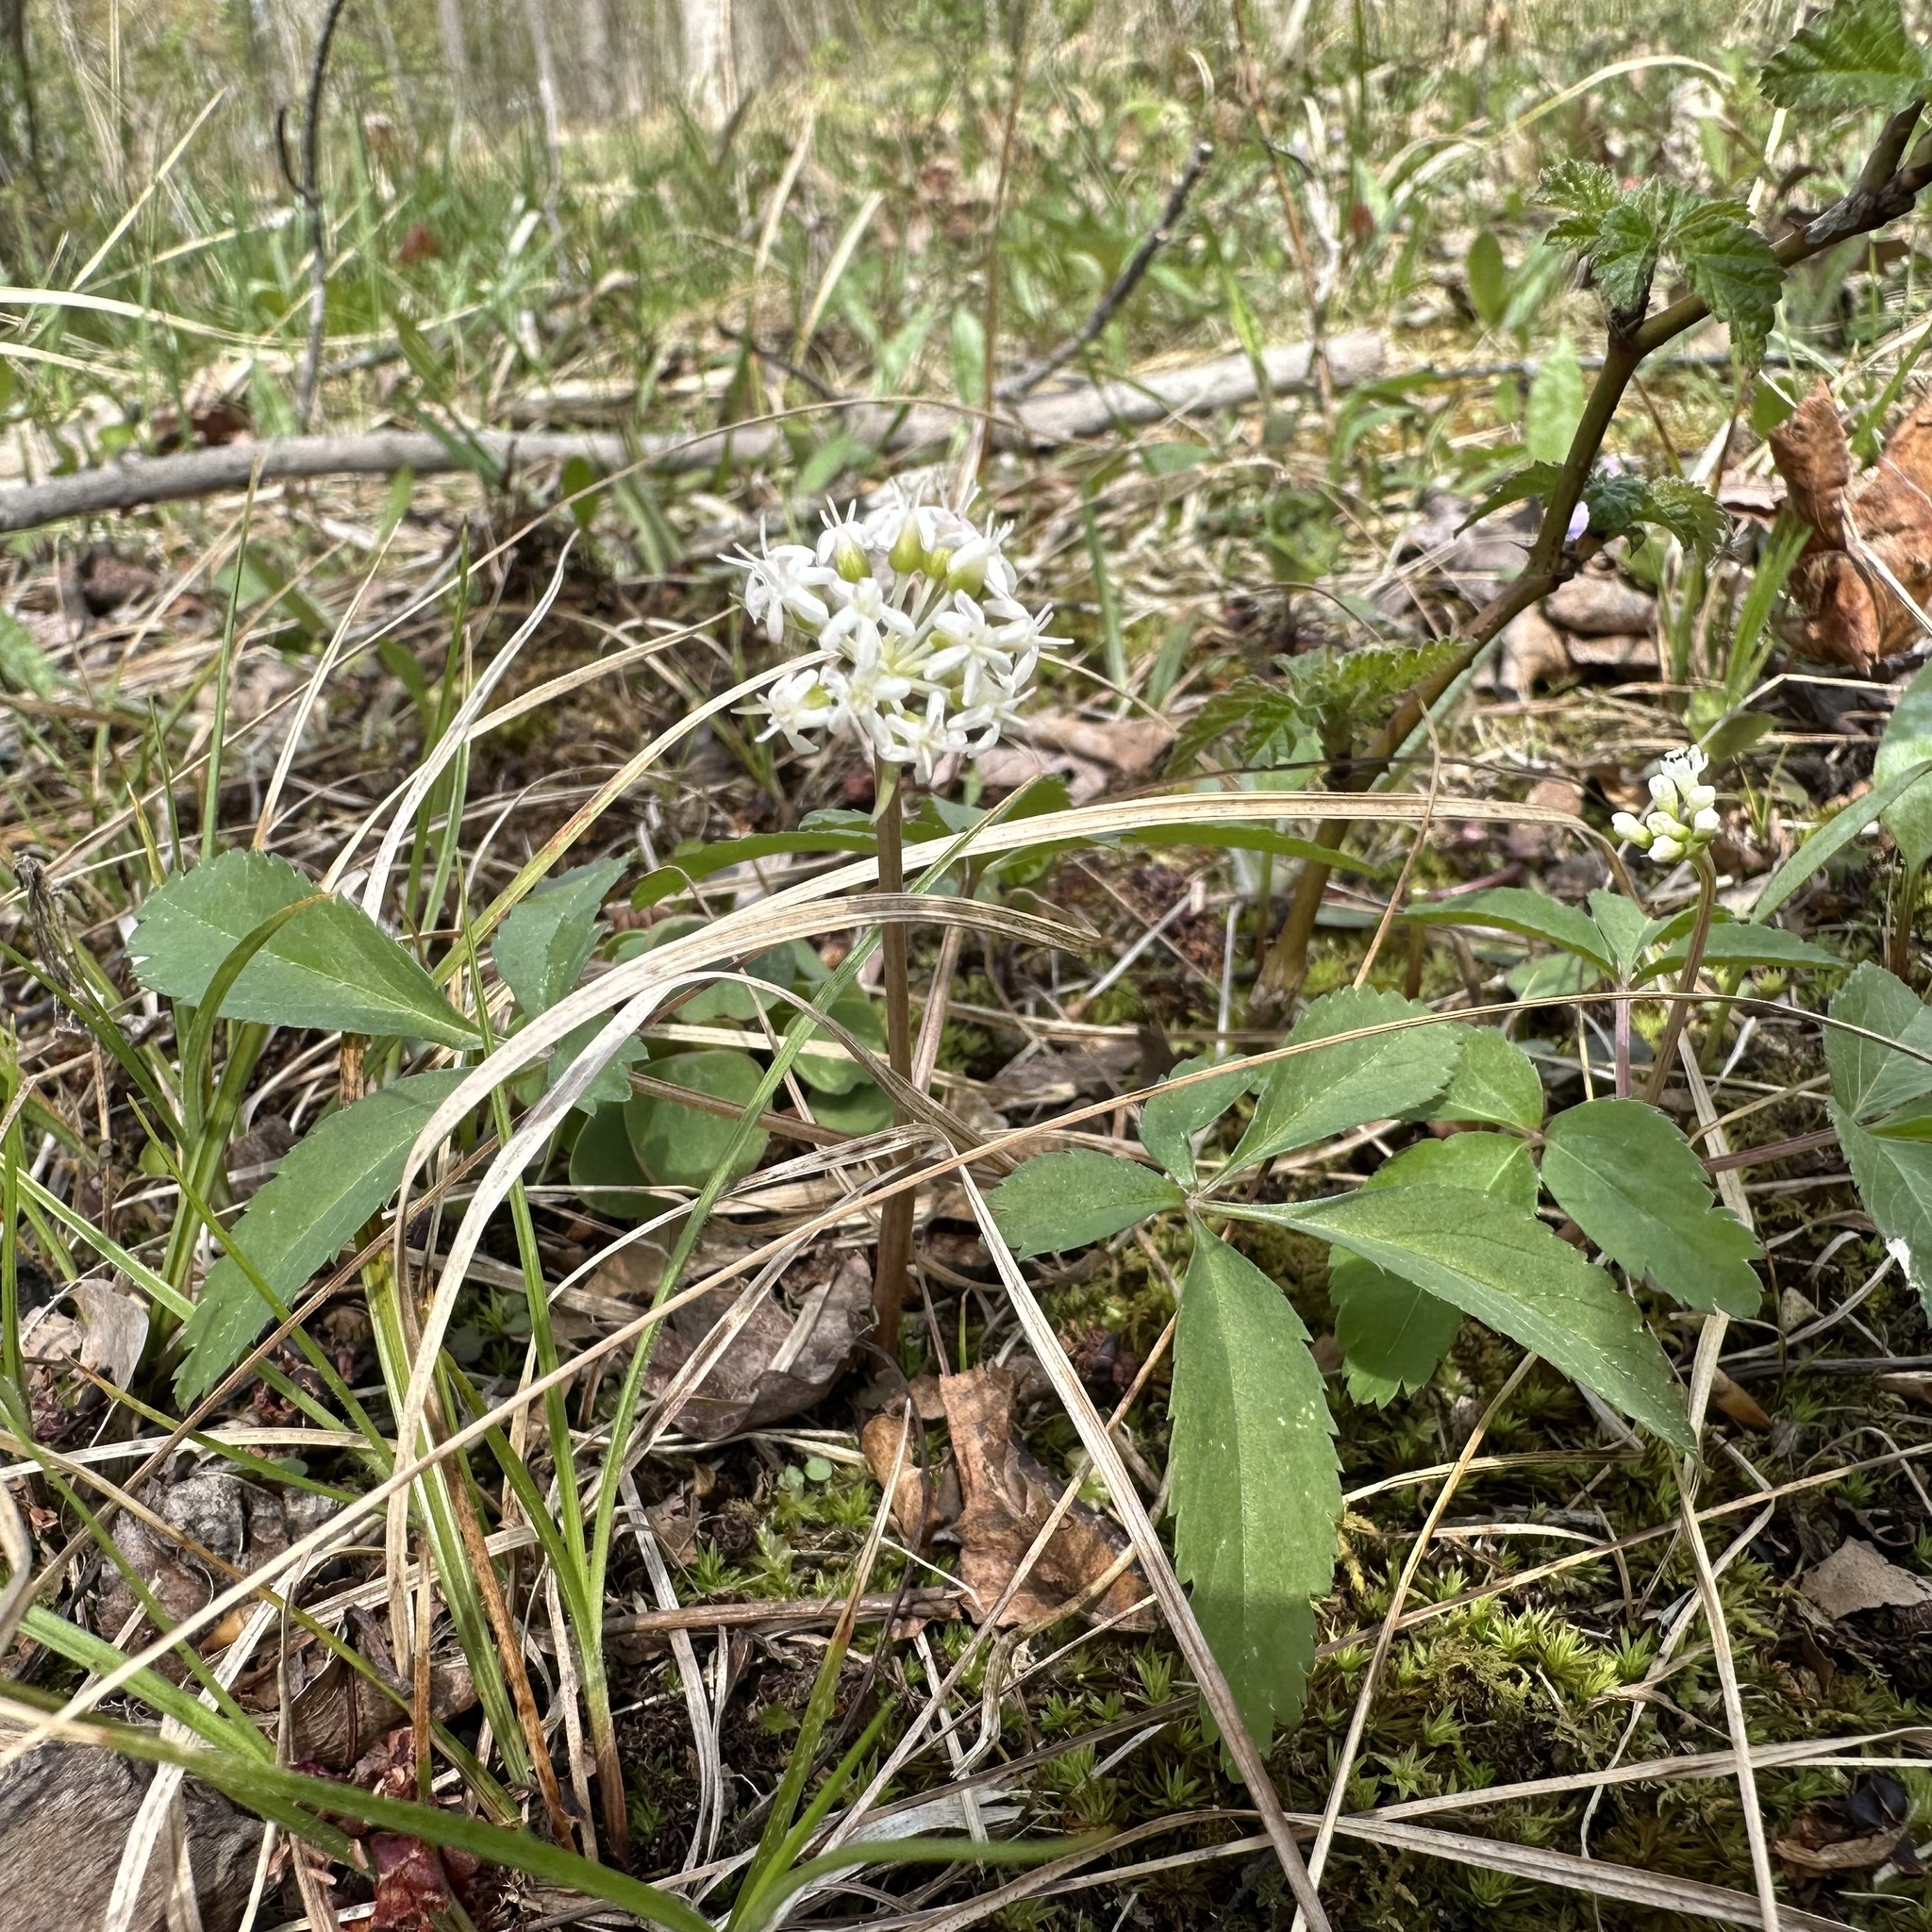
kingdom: Plantae
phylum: Tracheophyta
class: Magnoliopsida
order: Apiales
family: Araliaceae
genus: Panax
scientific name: Panax trifolius
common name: Dwarf ginseng
